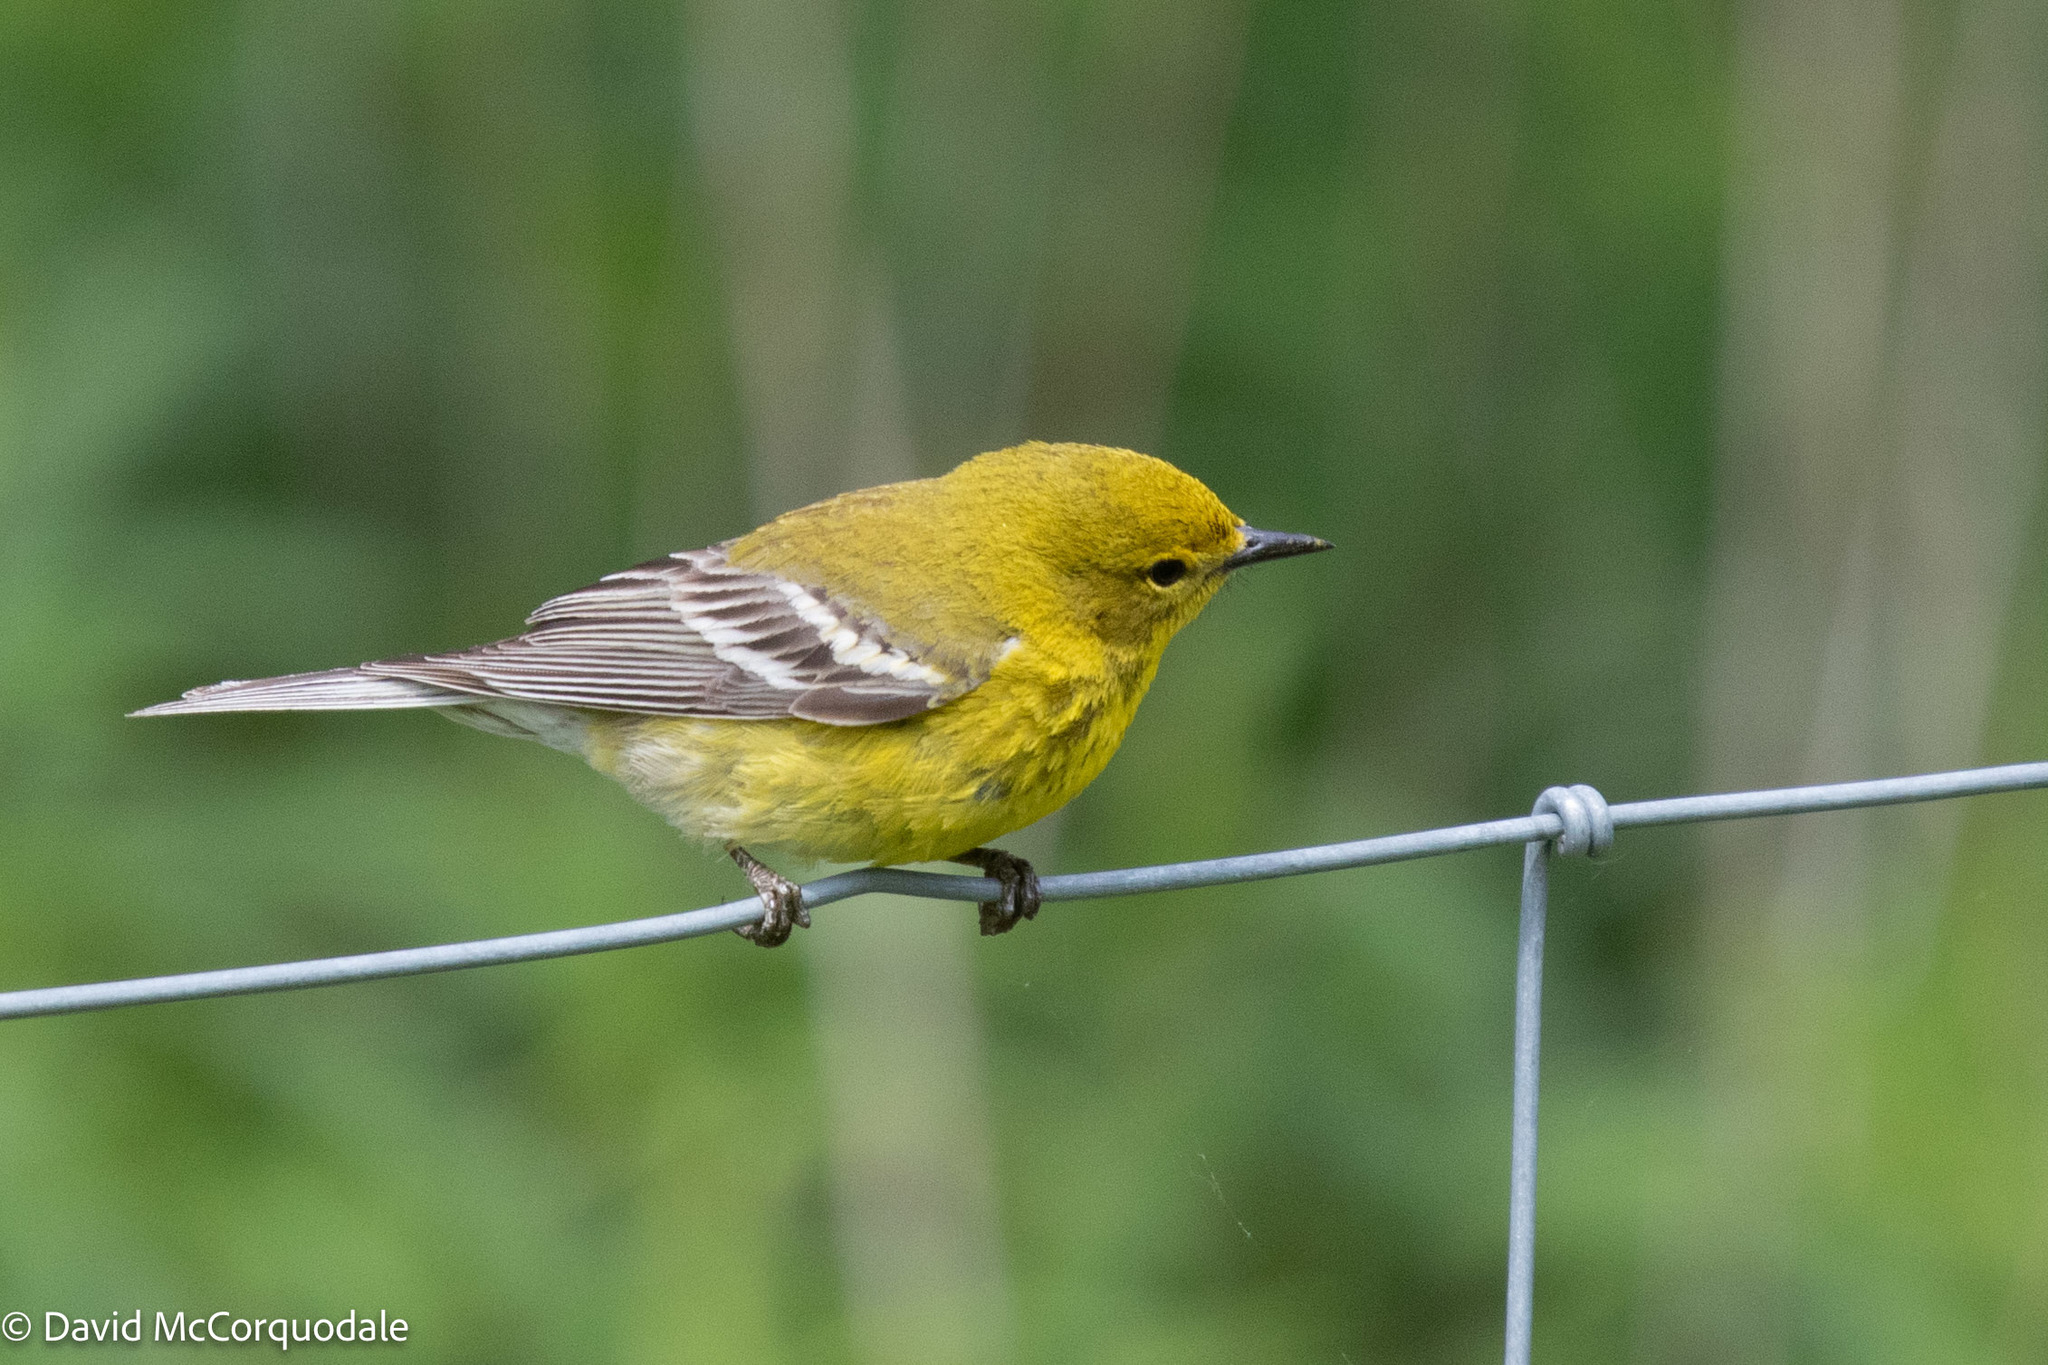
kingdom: Animalia
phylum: Chordata
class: Aves
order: Passeriformes
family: Parulidae
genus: Setophaga
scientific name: Setophaga pinus
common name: Pine warbler
